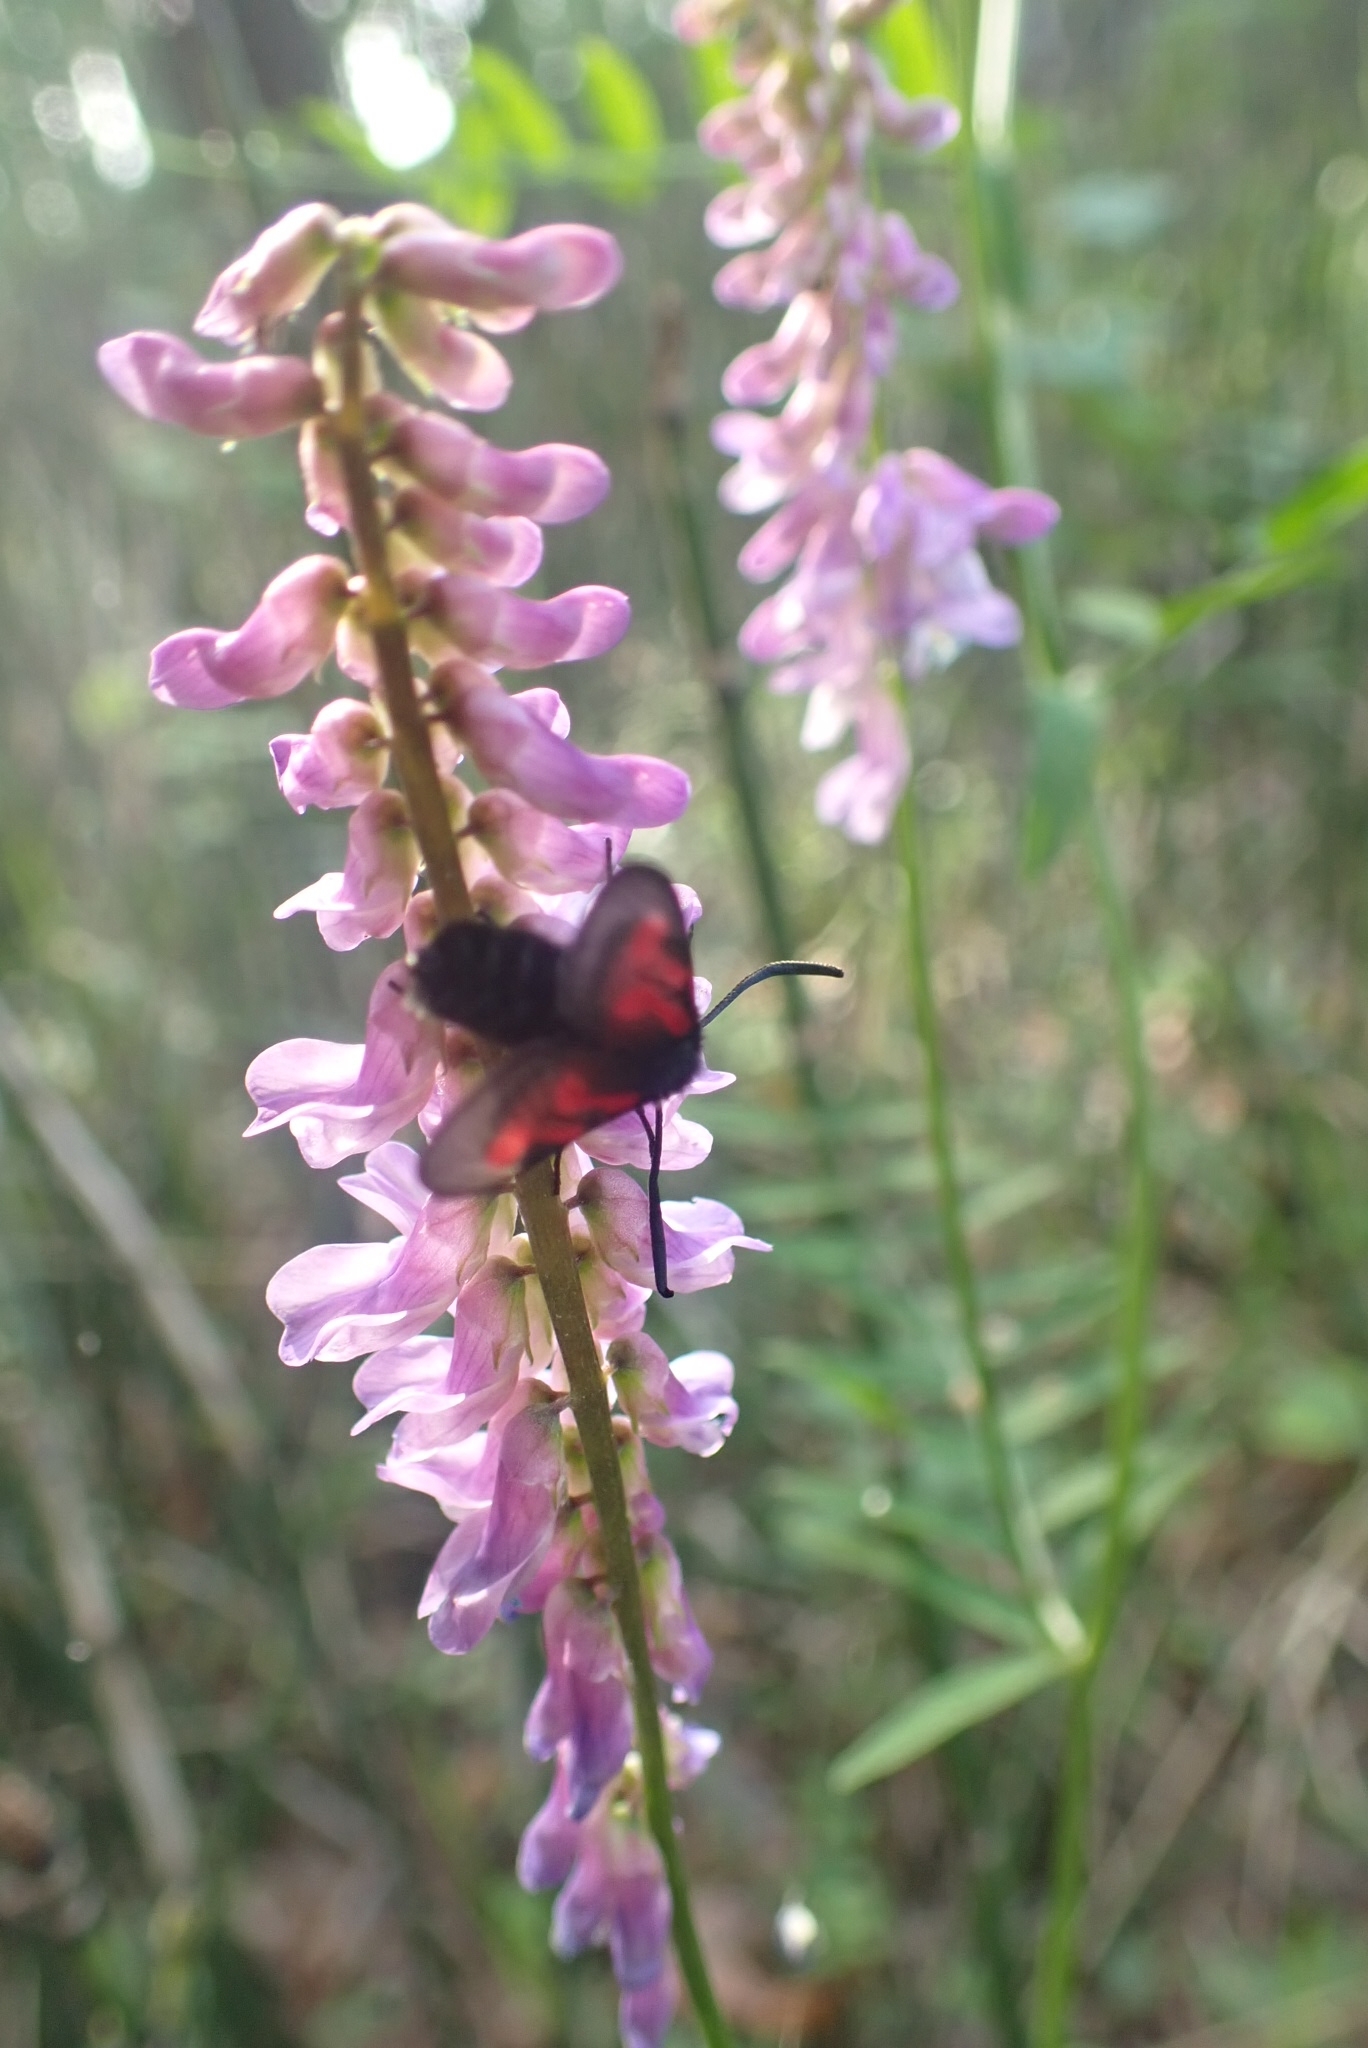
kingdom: Animalia
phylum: Arthropoda
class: Insecta
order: Lepidoptera
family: Zygaenidae
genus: Zygaena
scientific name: Zygaena osterodensis
